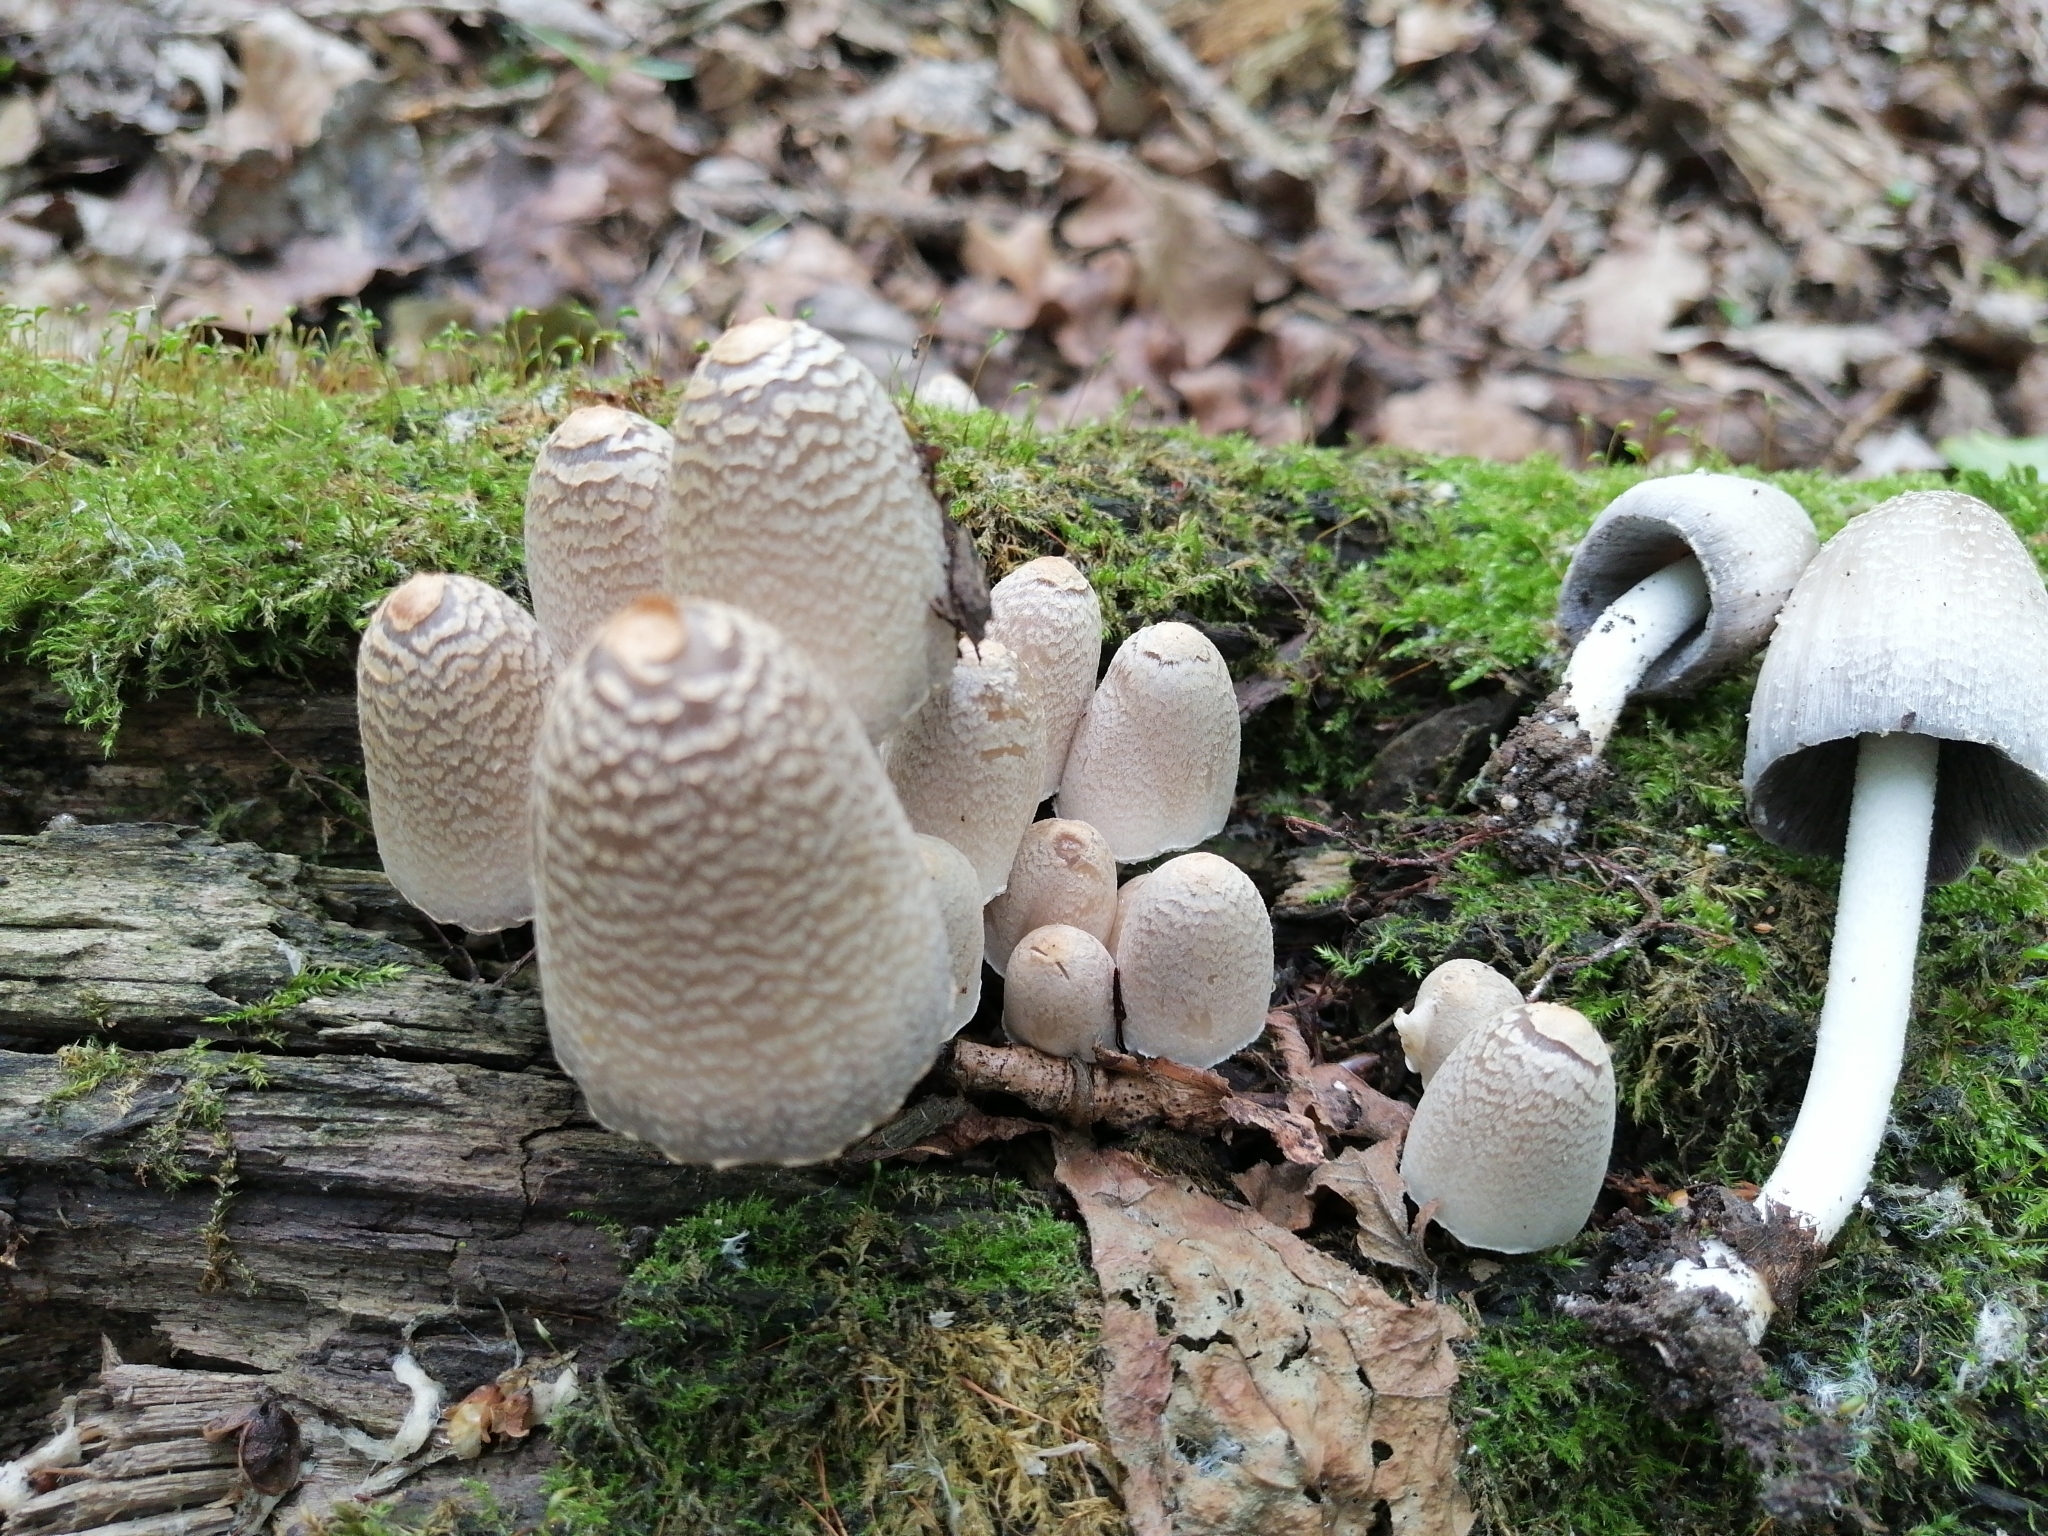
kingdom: Fungi
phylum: Basidiomycota
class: Agaricomycetes
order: Agaricales
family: Psathyrellaceae
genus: Coprinopsis
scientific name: Coprinopsis strossmayeri
